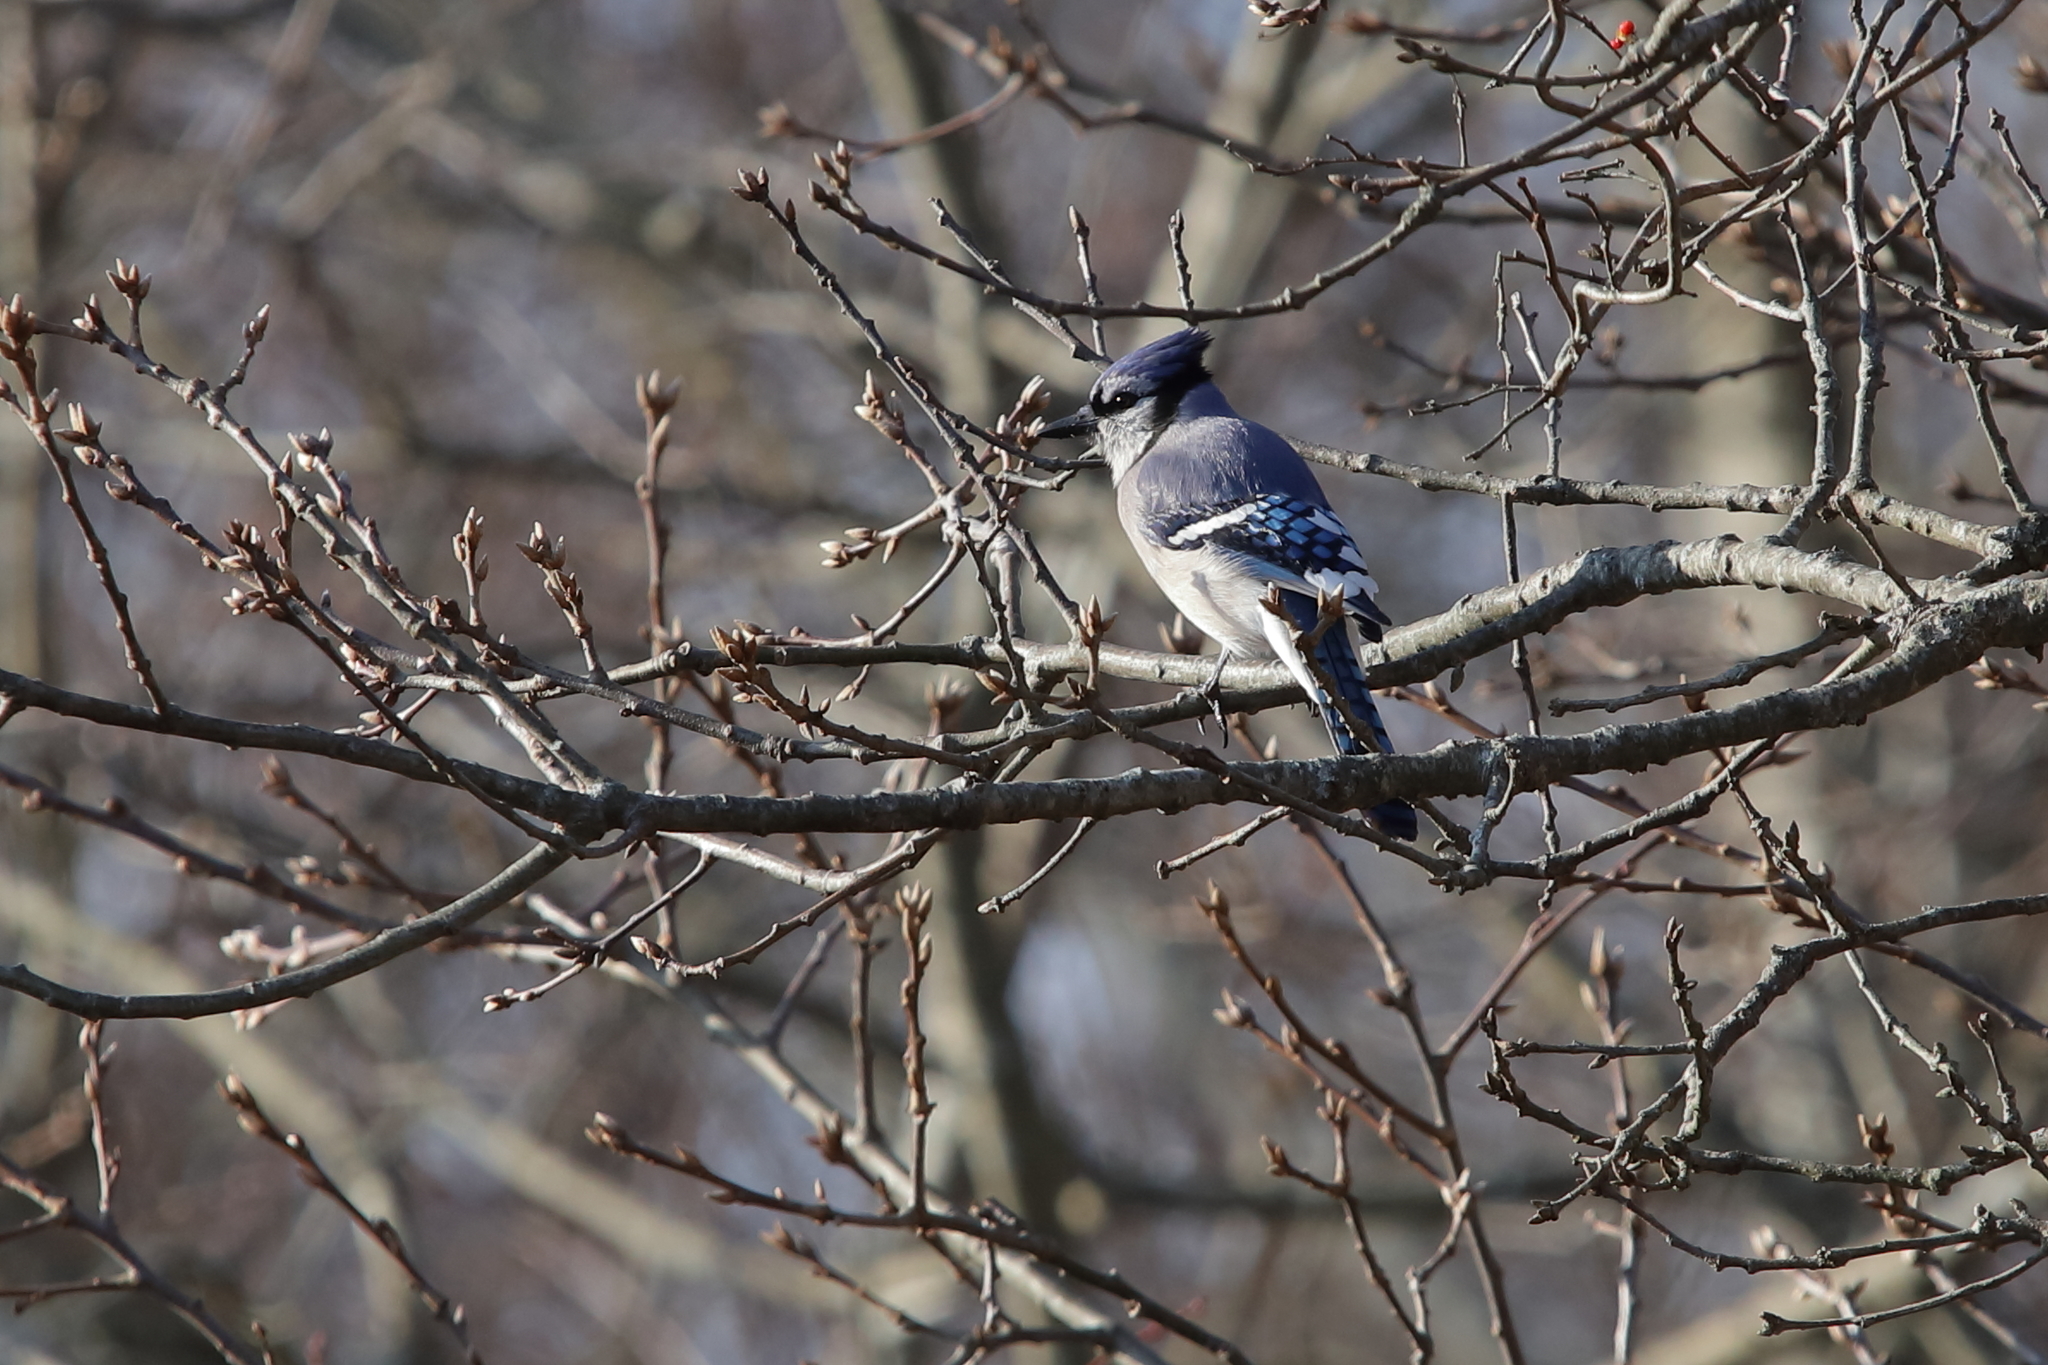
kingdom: Animalia
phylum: Chordata
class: Aves
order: Passeriformes
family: Corvidae
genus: Cyanocitta
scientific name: Cyanocitta cristata
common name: Blue jay
